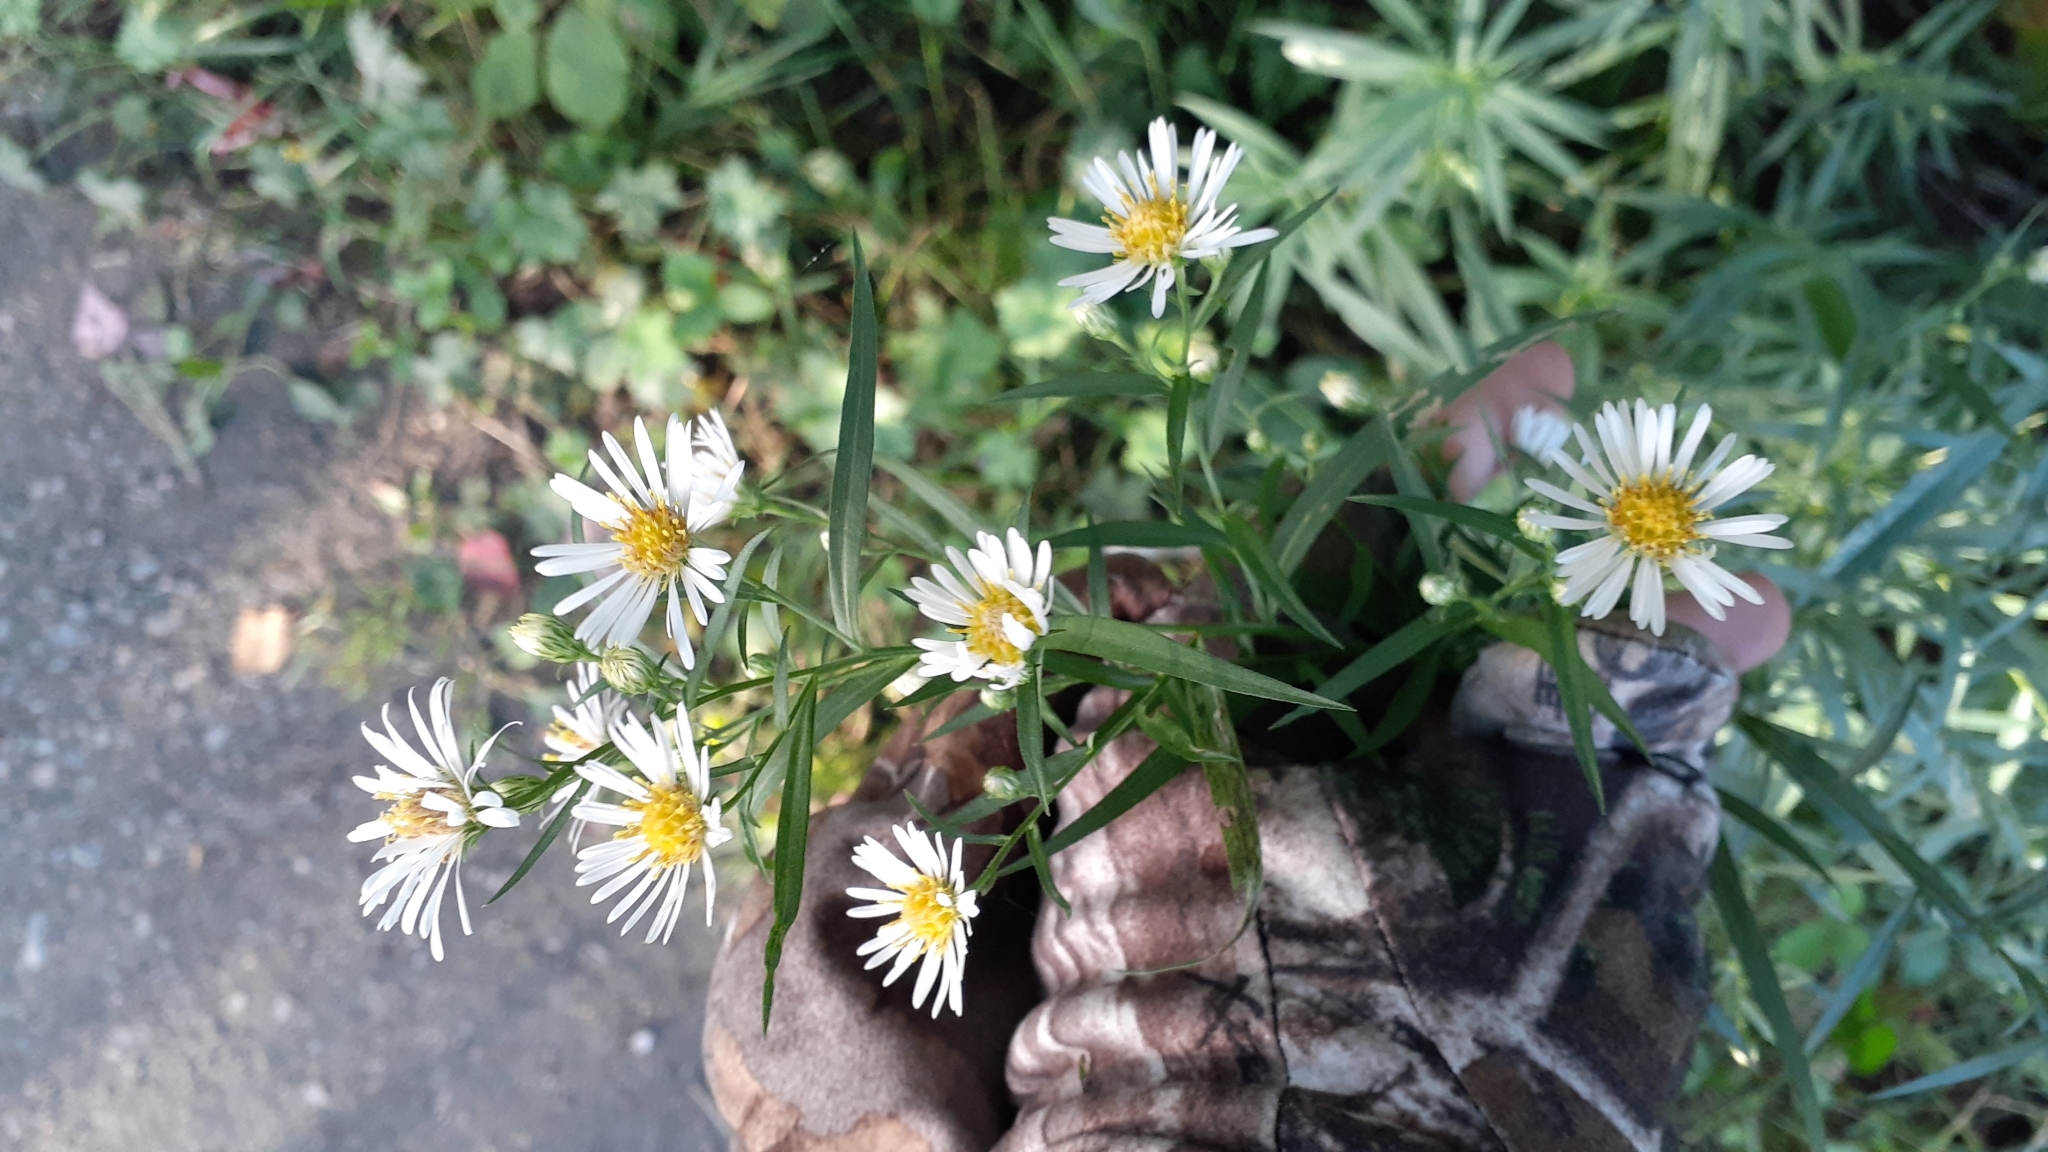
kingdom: Plantae
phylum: Tracheophyta
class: Magnoliopsida
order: Asterales
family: Asteraceae
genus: Symphyotrichum
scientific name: Symphyotrichum lanceolatum
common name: Panicled aster
